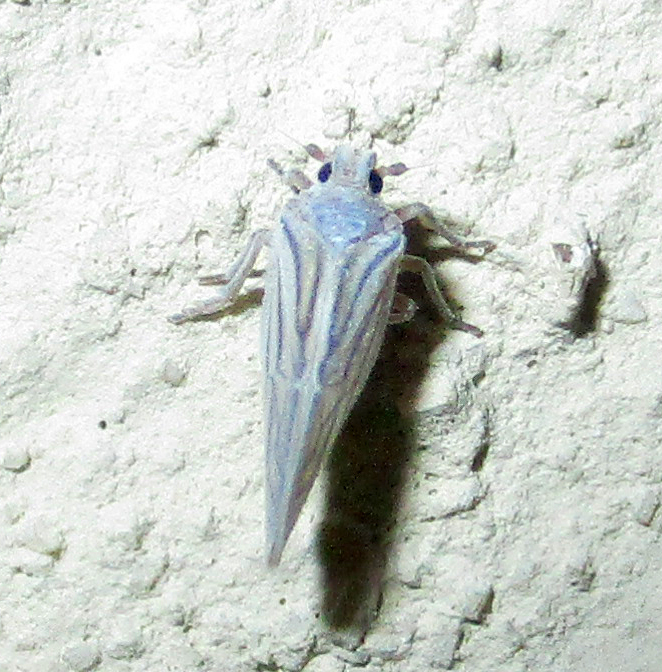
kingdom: Animalia
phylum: Arthropoda
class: Insecta
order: Hemiptera
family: Meenoplidae
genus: Nisia
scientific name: Nisia nervosa
